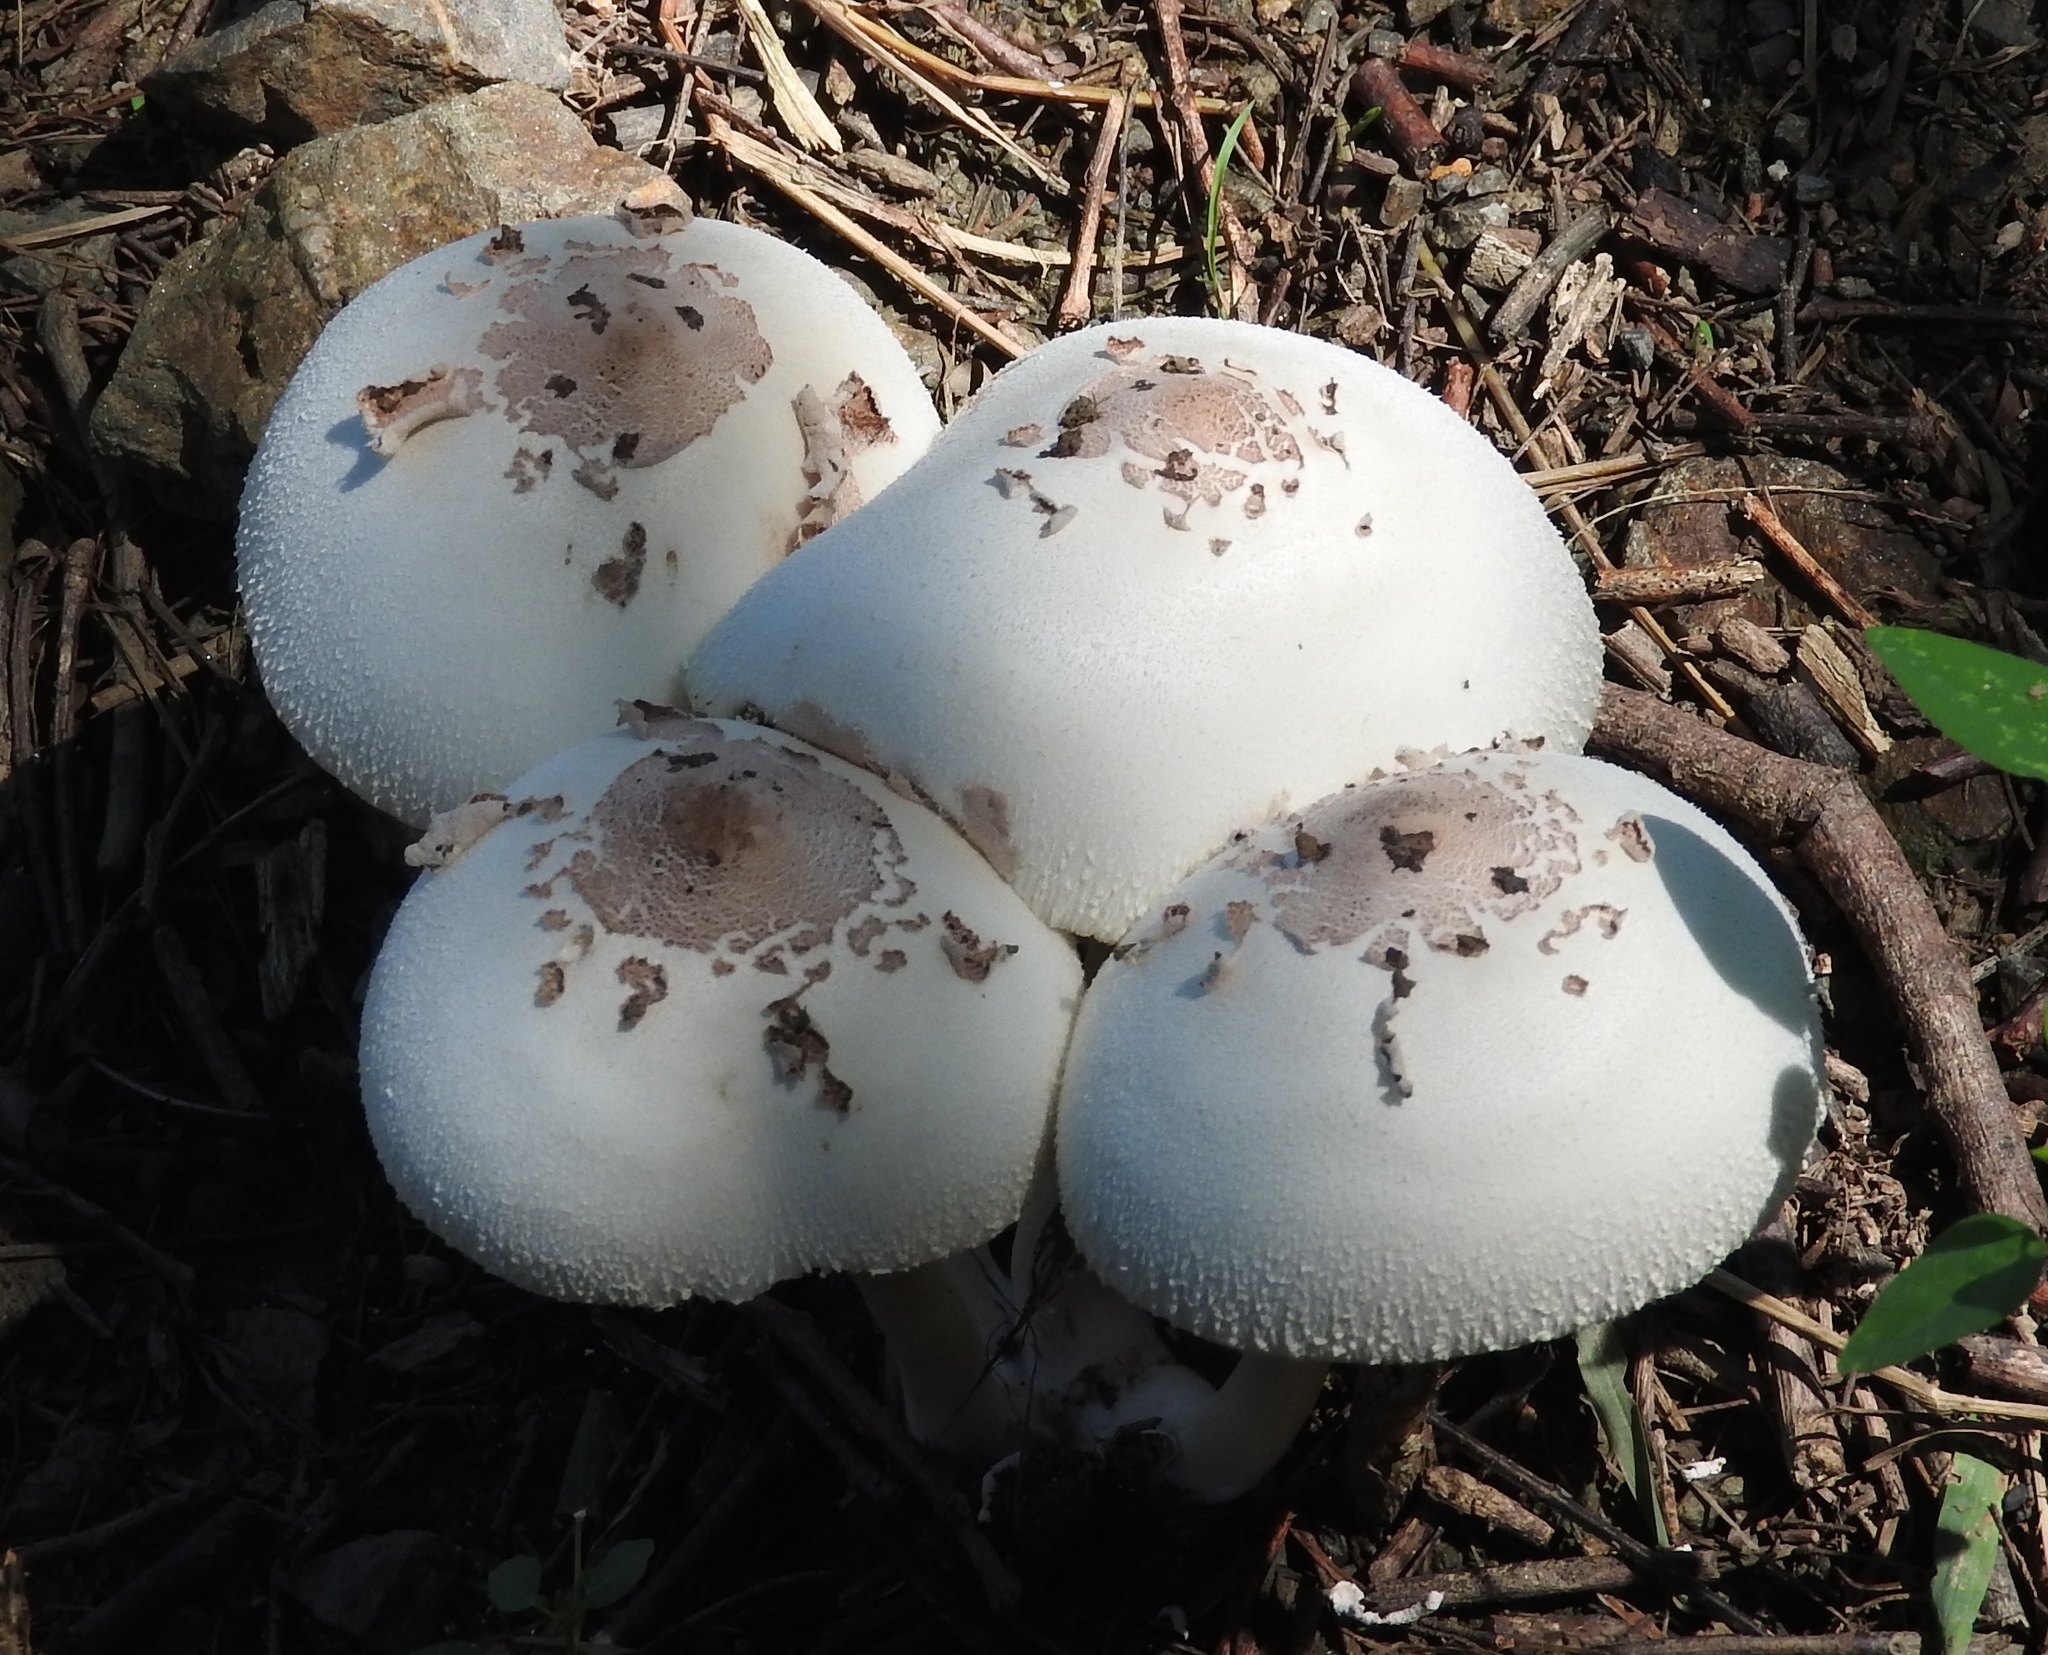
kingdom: Fungi
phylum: Basidiomycota
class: Agaricomycetes
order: Agaricales
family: Agaricaceae
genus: Chlorophyllum
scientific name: Chlorophyllum molybdites
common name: False parasol
